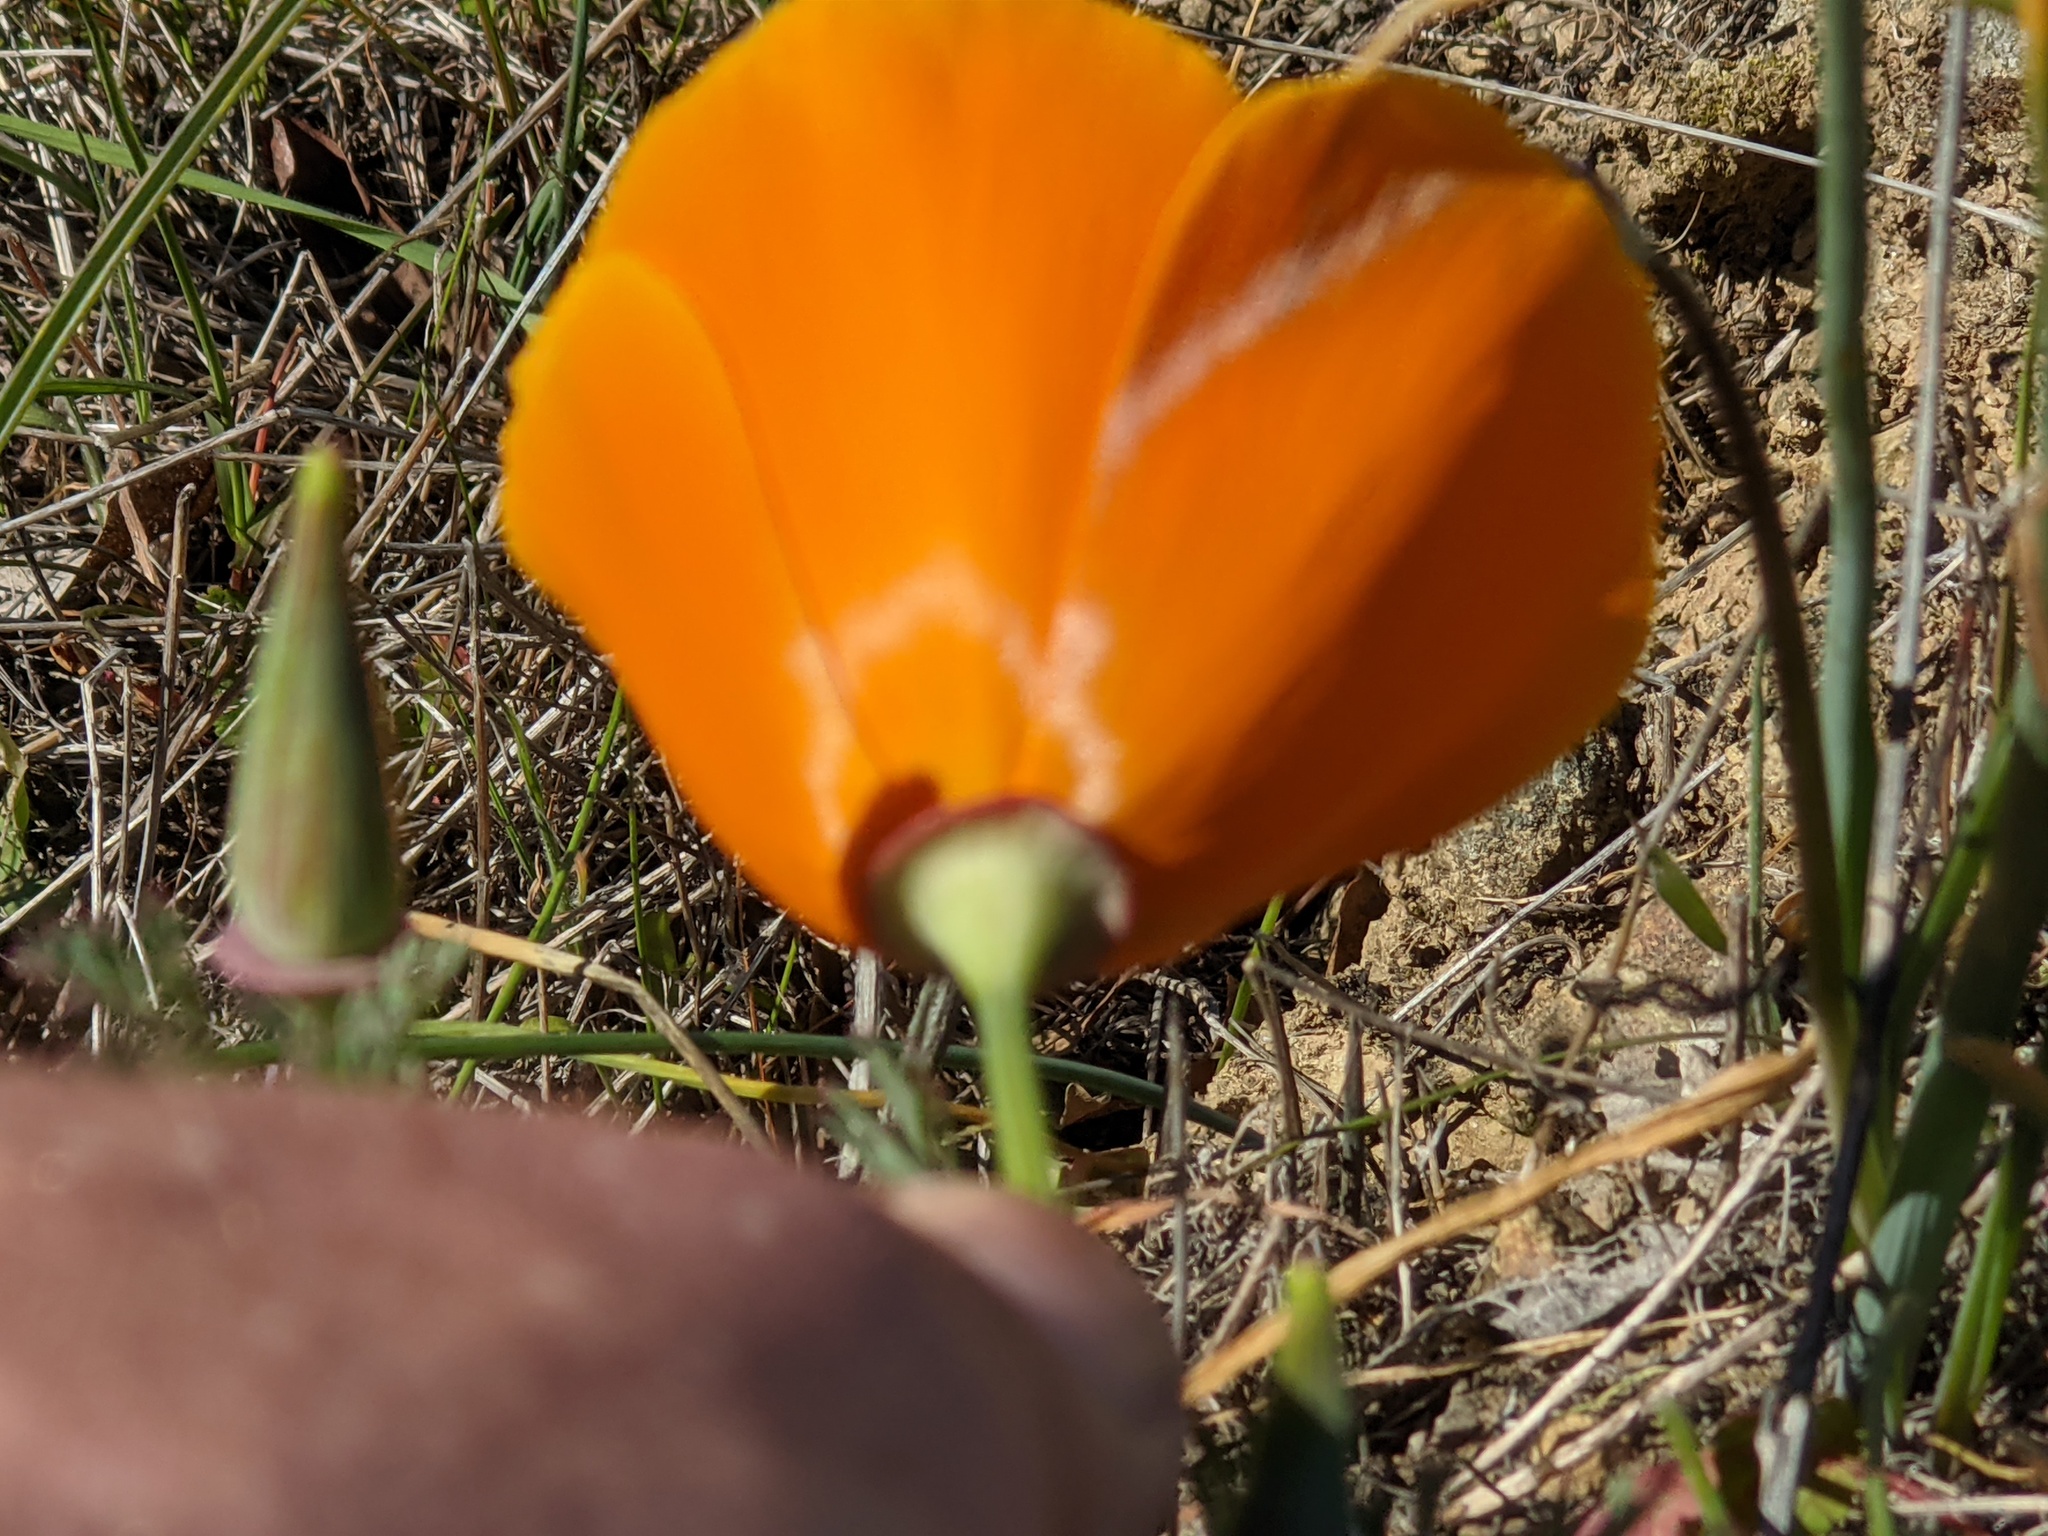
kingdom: Plantae
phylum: Tracheophyta
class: Magnoliopsida
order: Ranunculales
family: Papaveraceae
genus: Eschscholzia
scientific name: Eschscholzia californica
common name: California poppy
